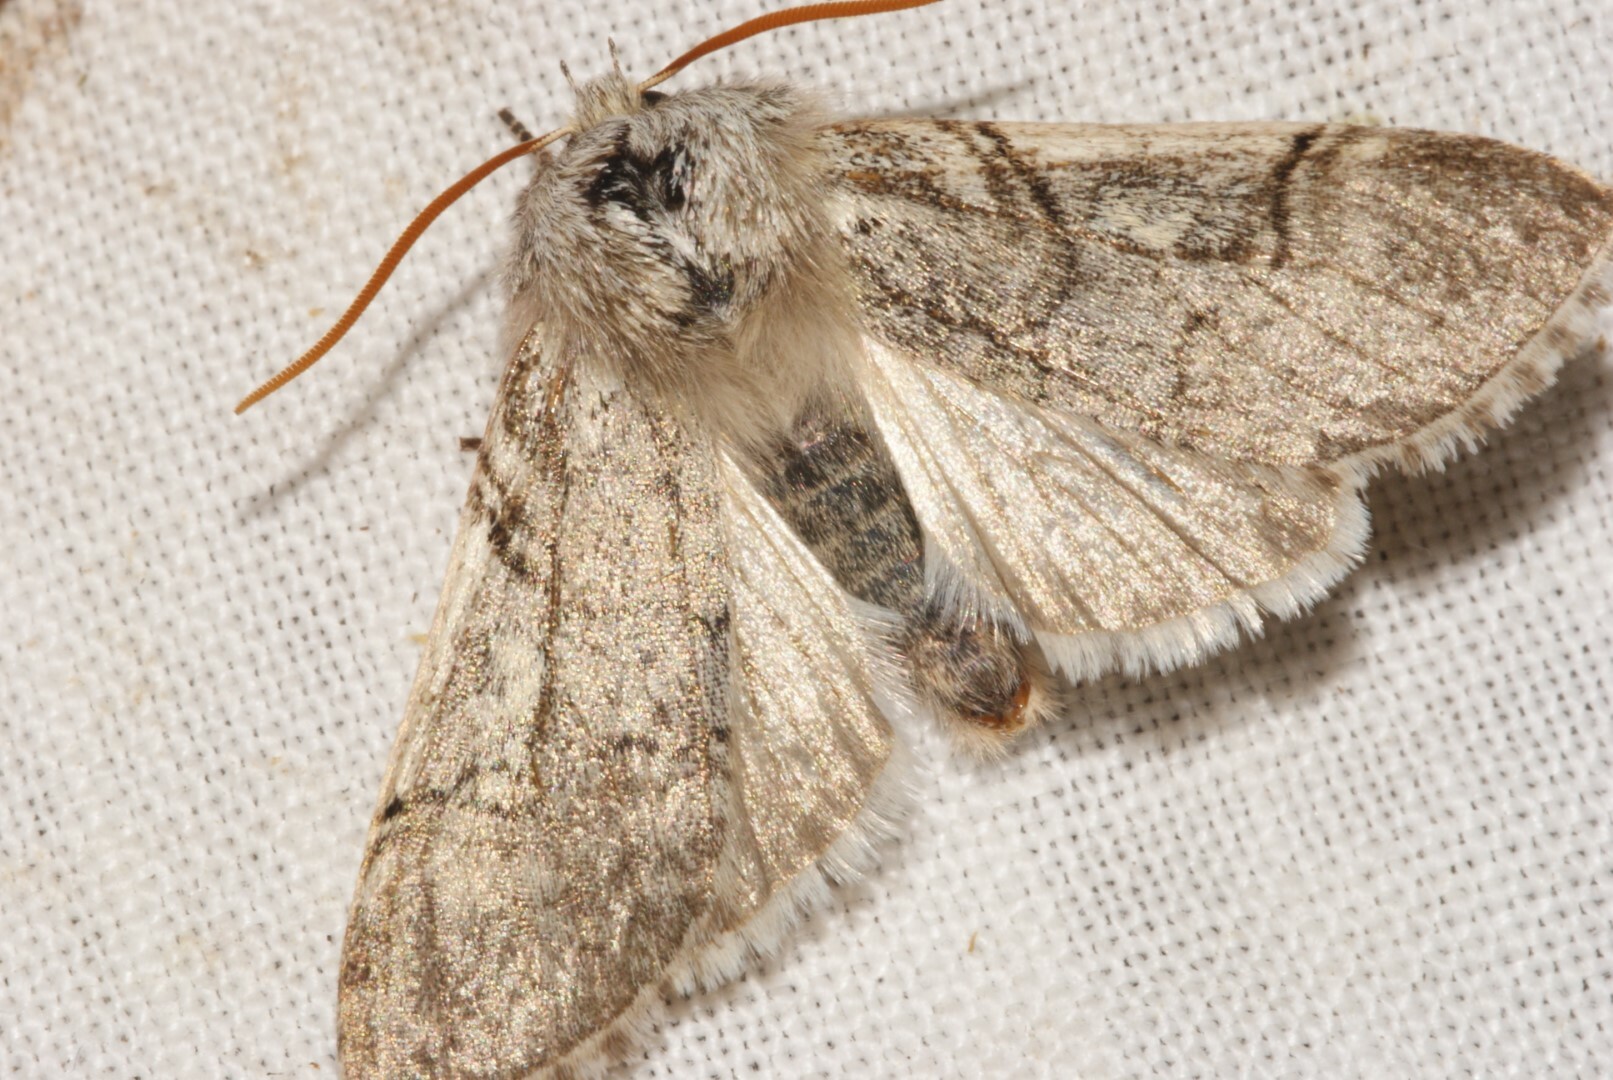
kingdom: Animalia
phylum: Arthropoda
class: Insecta
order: Lepidoptera
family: Drepanidae
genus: Achlya
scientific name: Achlya flavicornis
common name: Yellow horned
